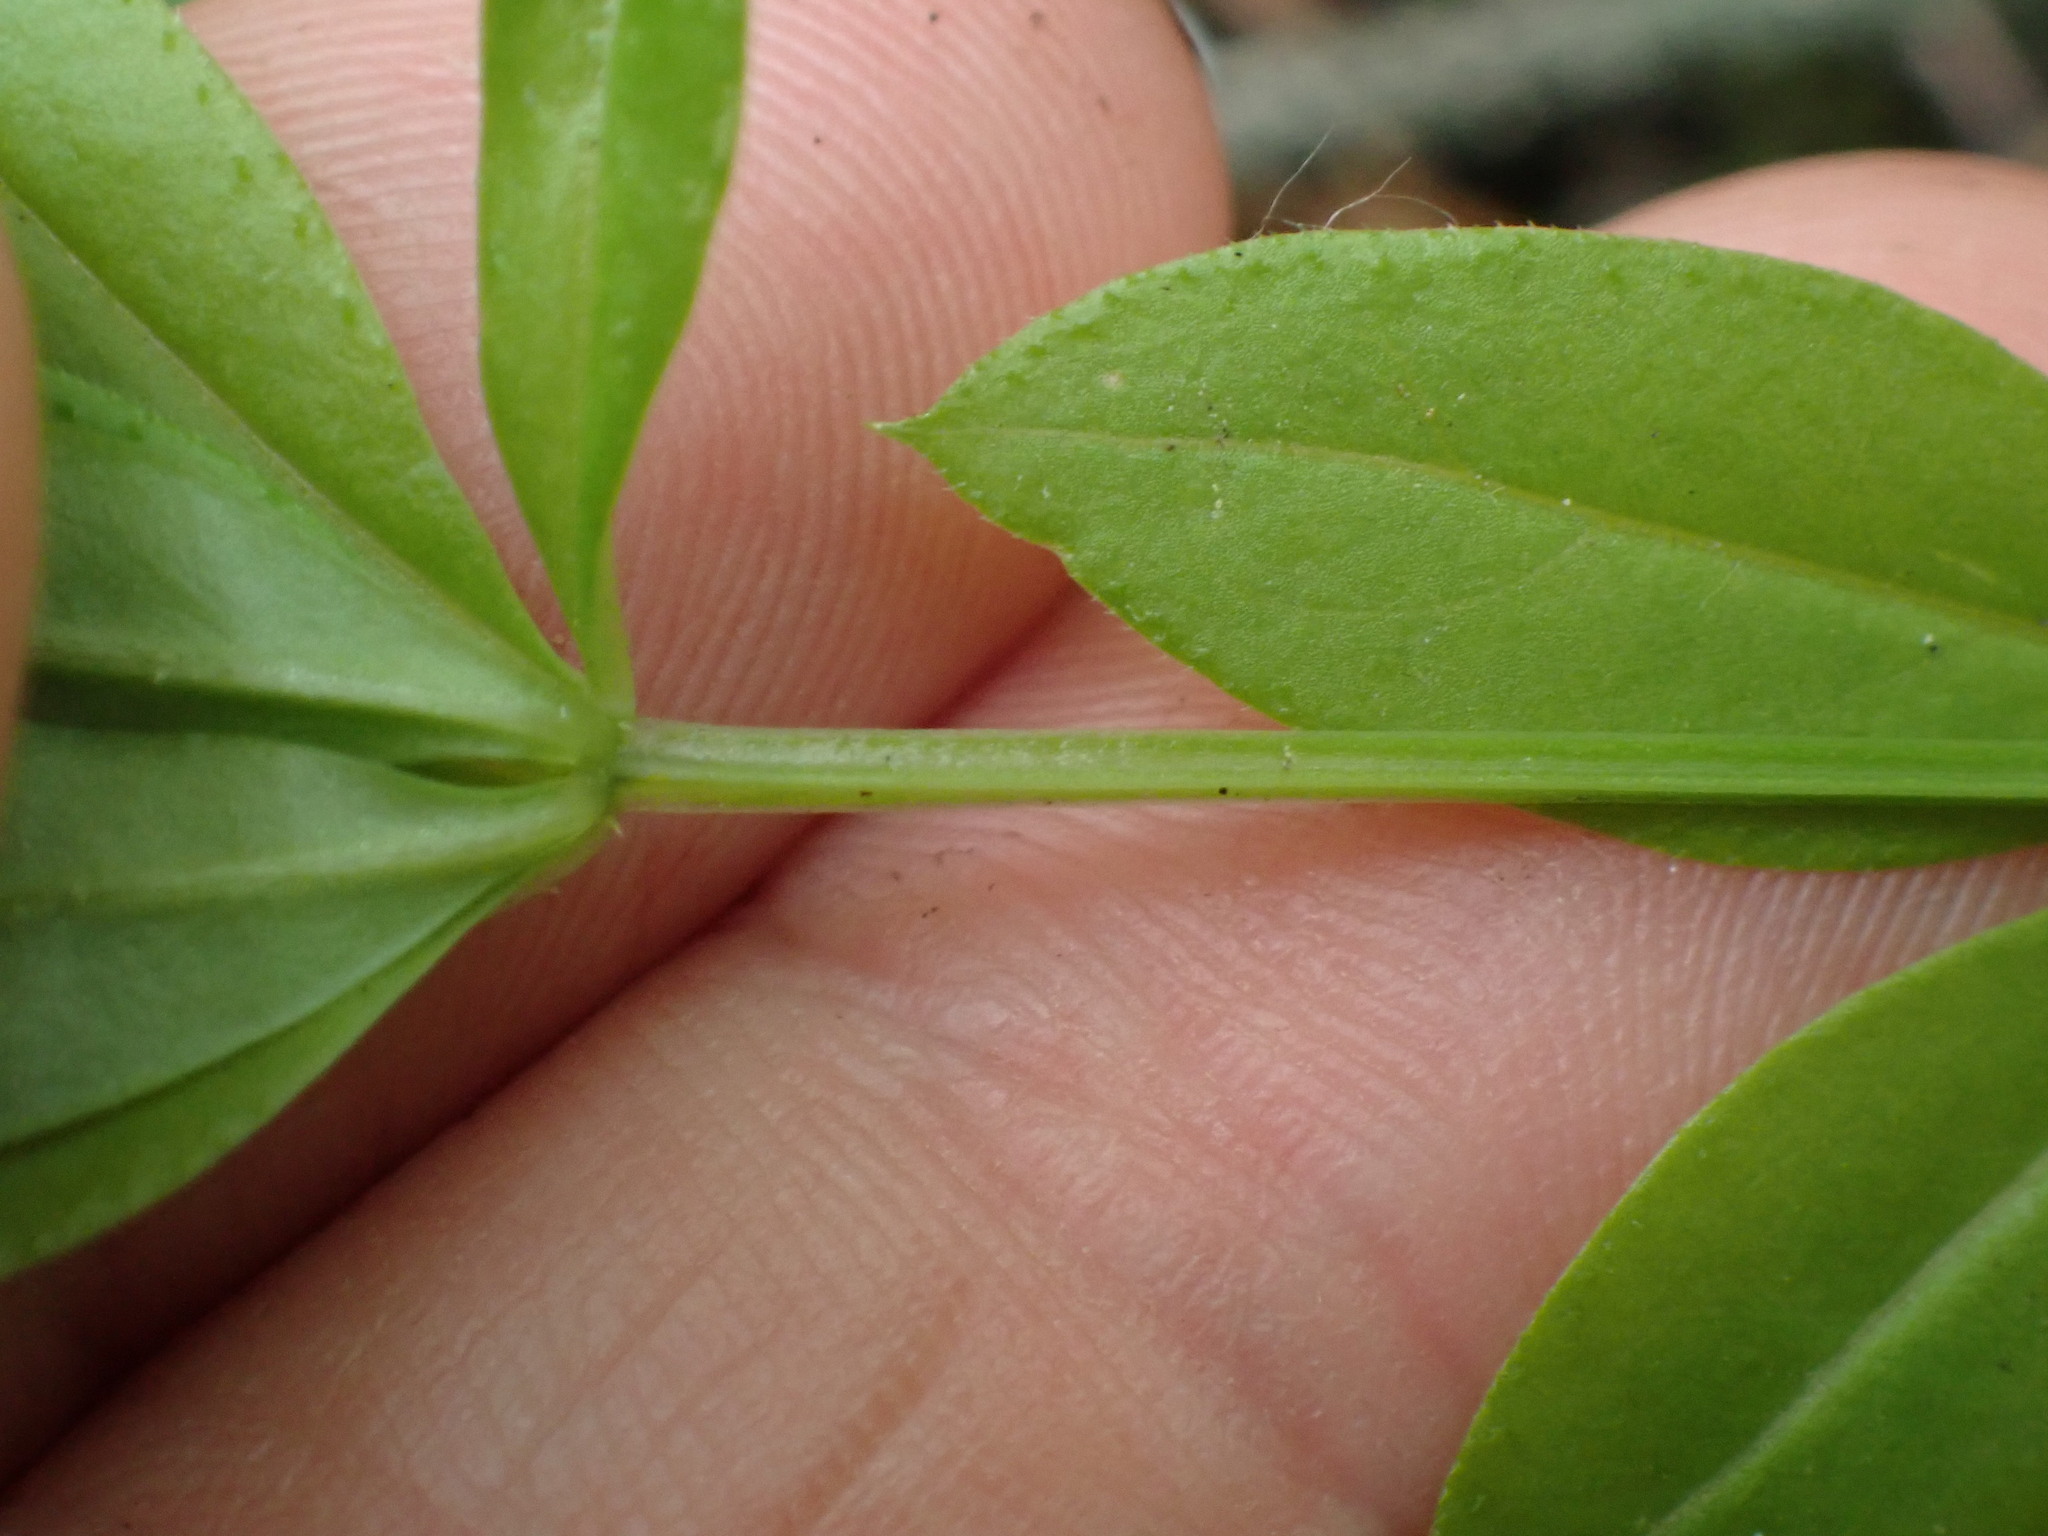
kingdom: Plantae
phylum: Tracheophyta
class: Magnoliopsida
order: Gentianales
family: Rubiaceae
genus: Galium
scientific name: Galium triflorum
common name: Fragrant bedstraw
